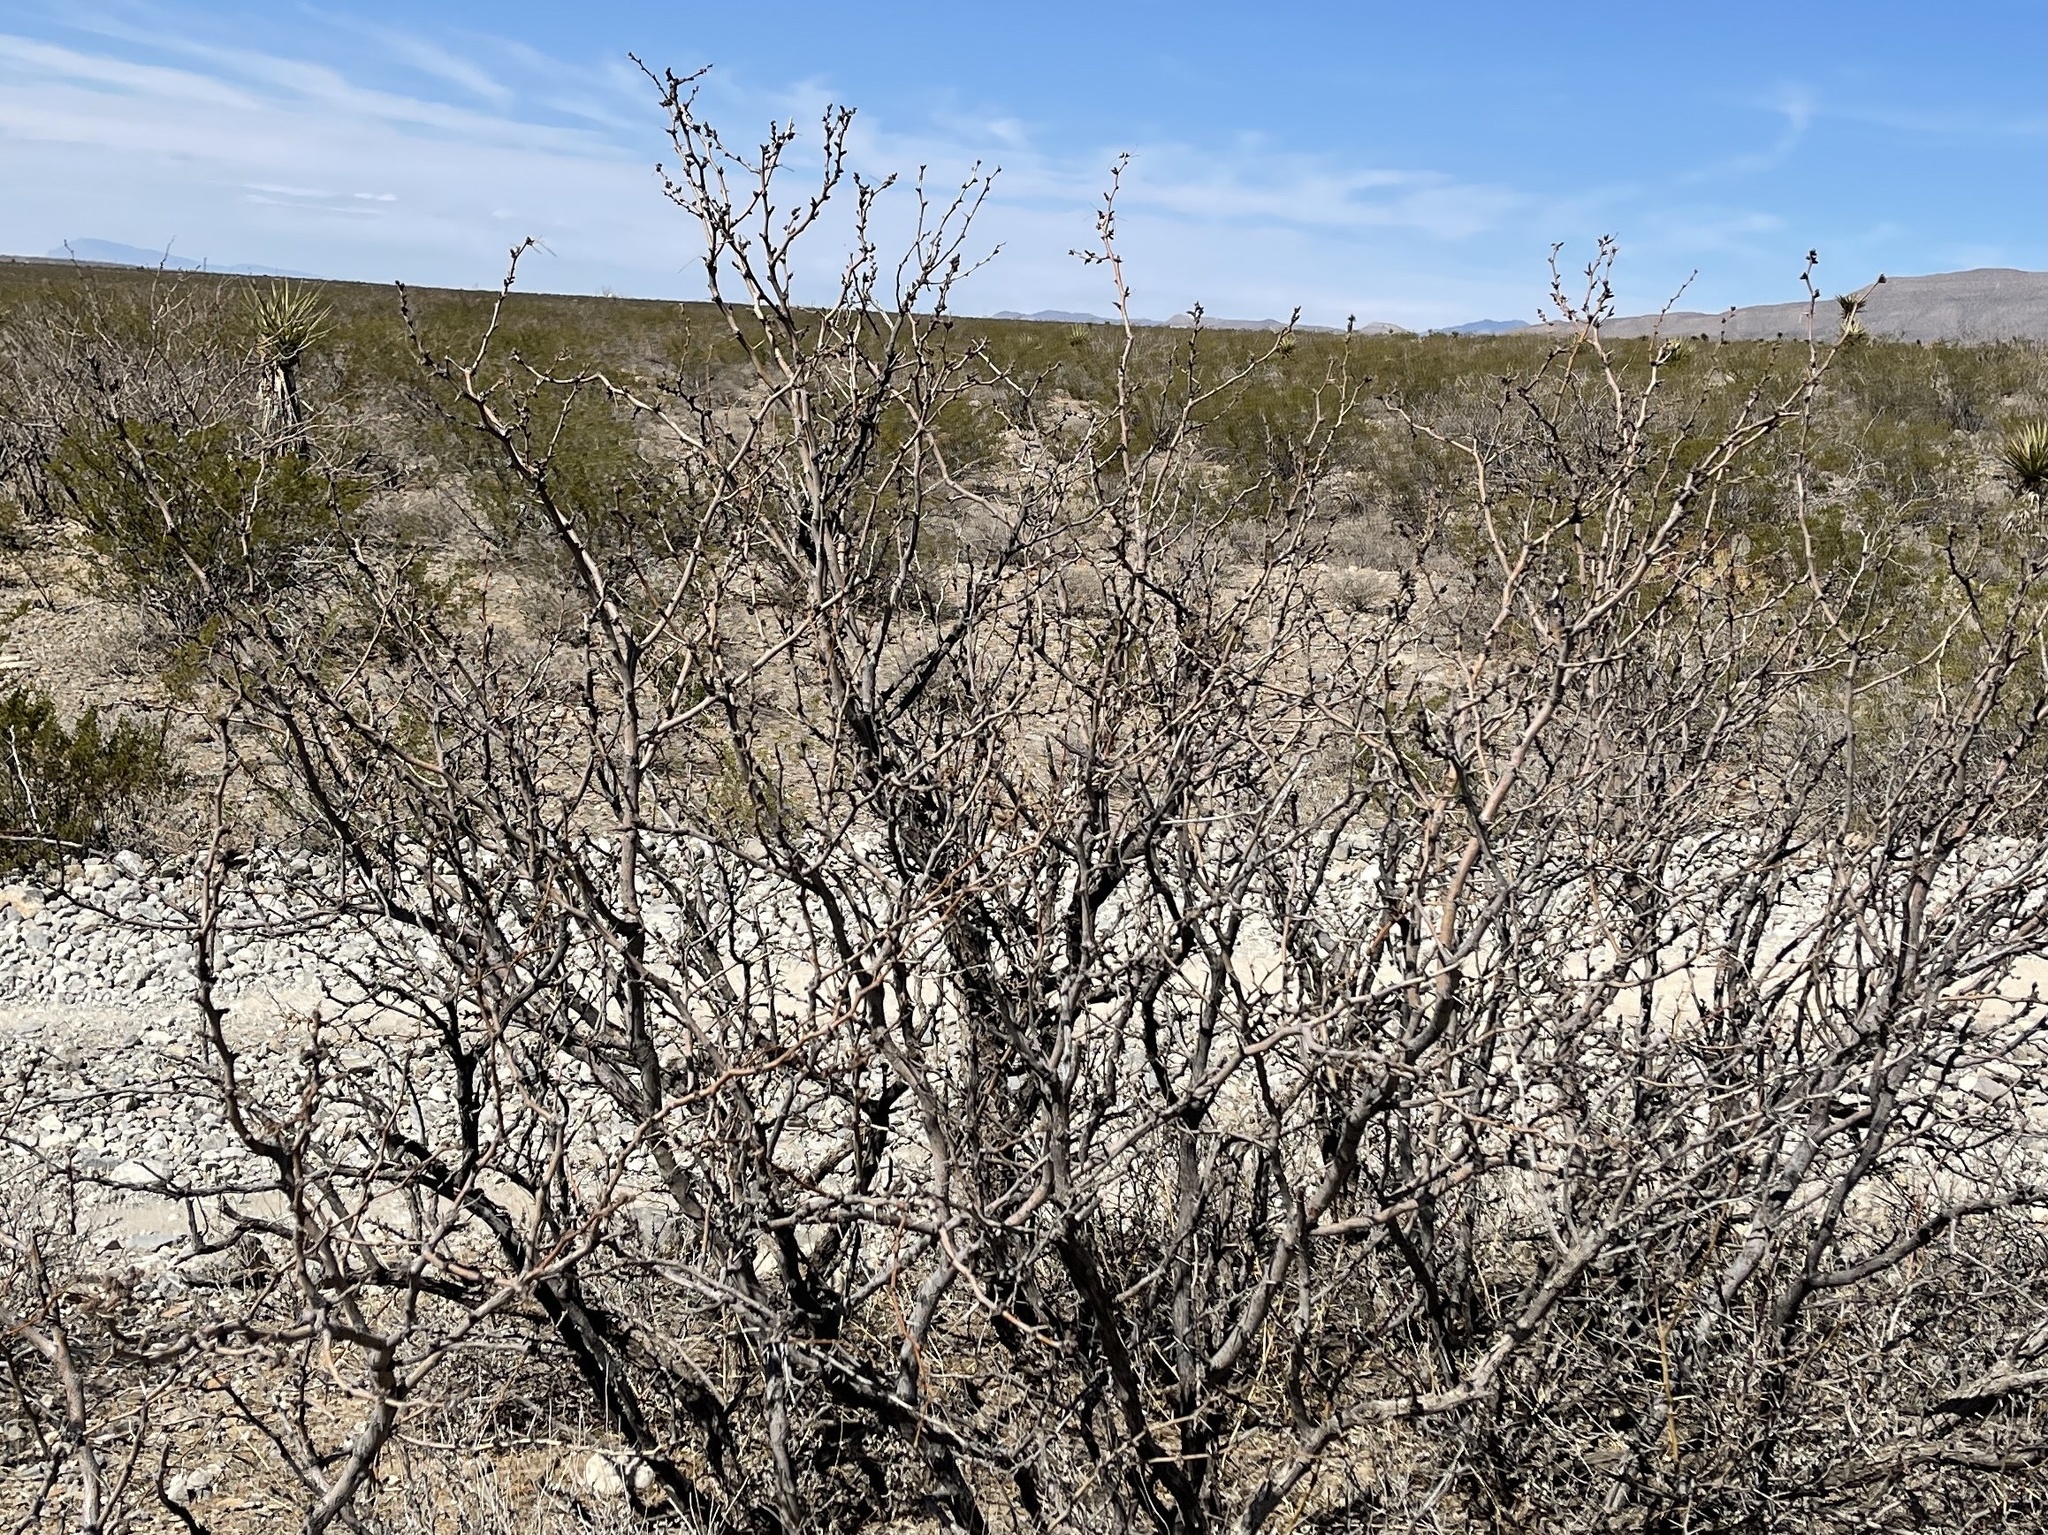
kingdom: Plantae
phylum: Tracheophyta
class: Magnoliopsida
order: Fabales
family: Fabaceae
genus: Prosopis
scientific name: Prosopis glandulosa
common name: Honey mesquite
